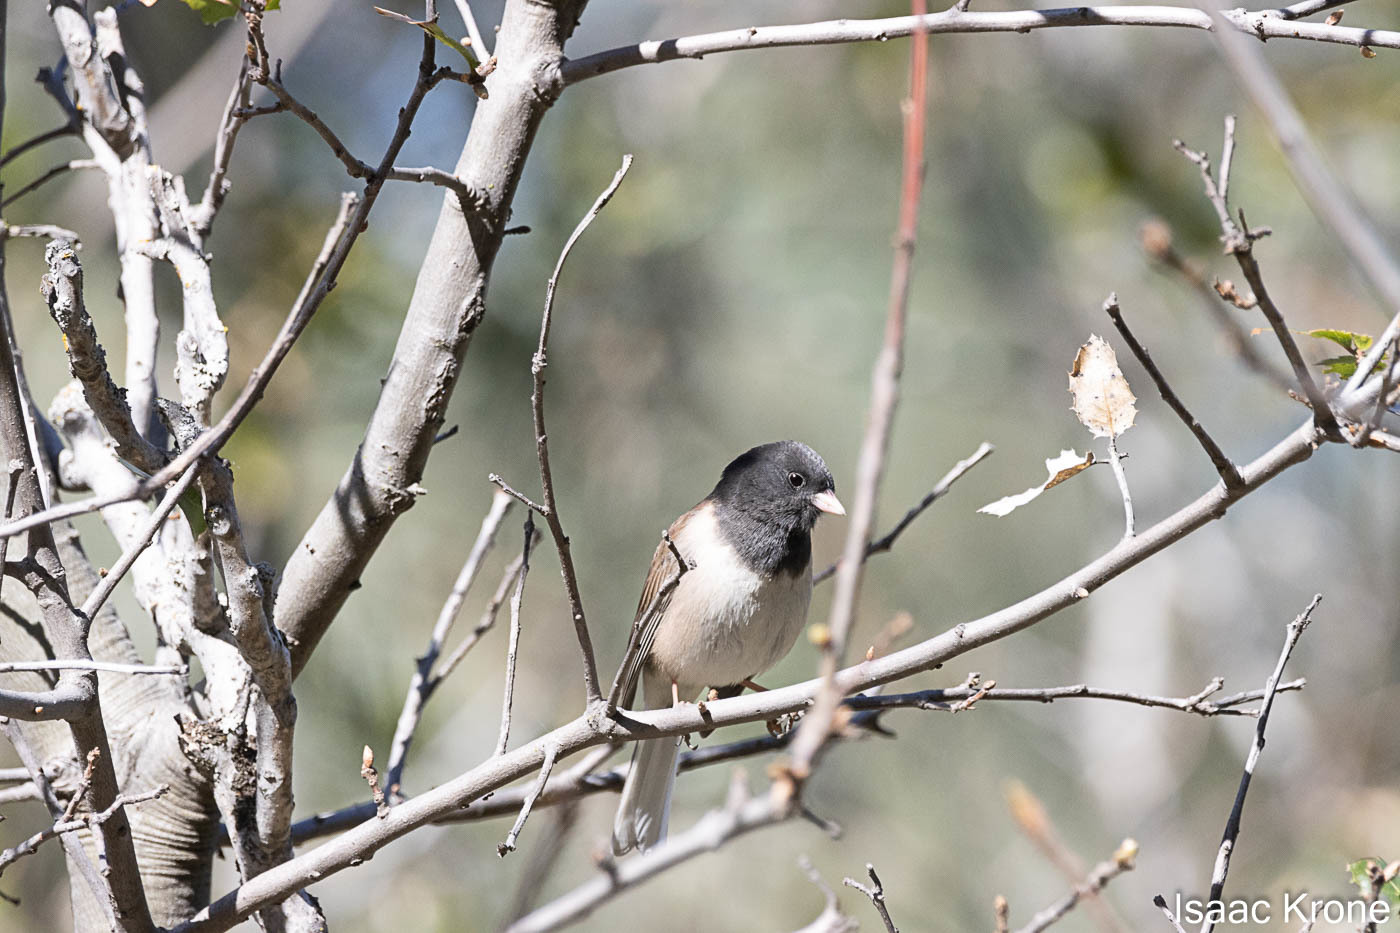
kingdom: Animalia
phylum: Chordata
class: Aves
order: Passeriformes
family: Passerellidae
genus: Junco
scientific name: Junco hyemalis
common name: Dark-eyed junco
